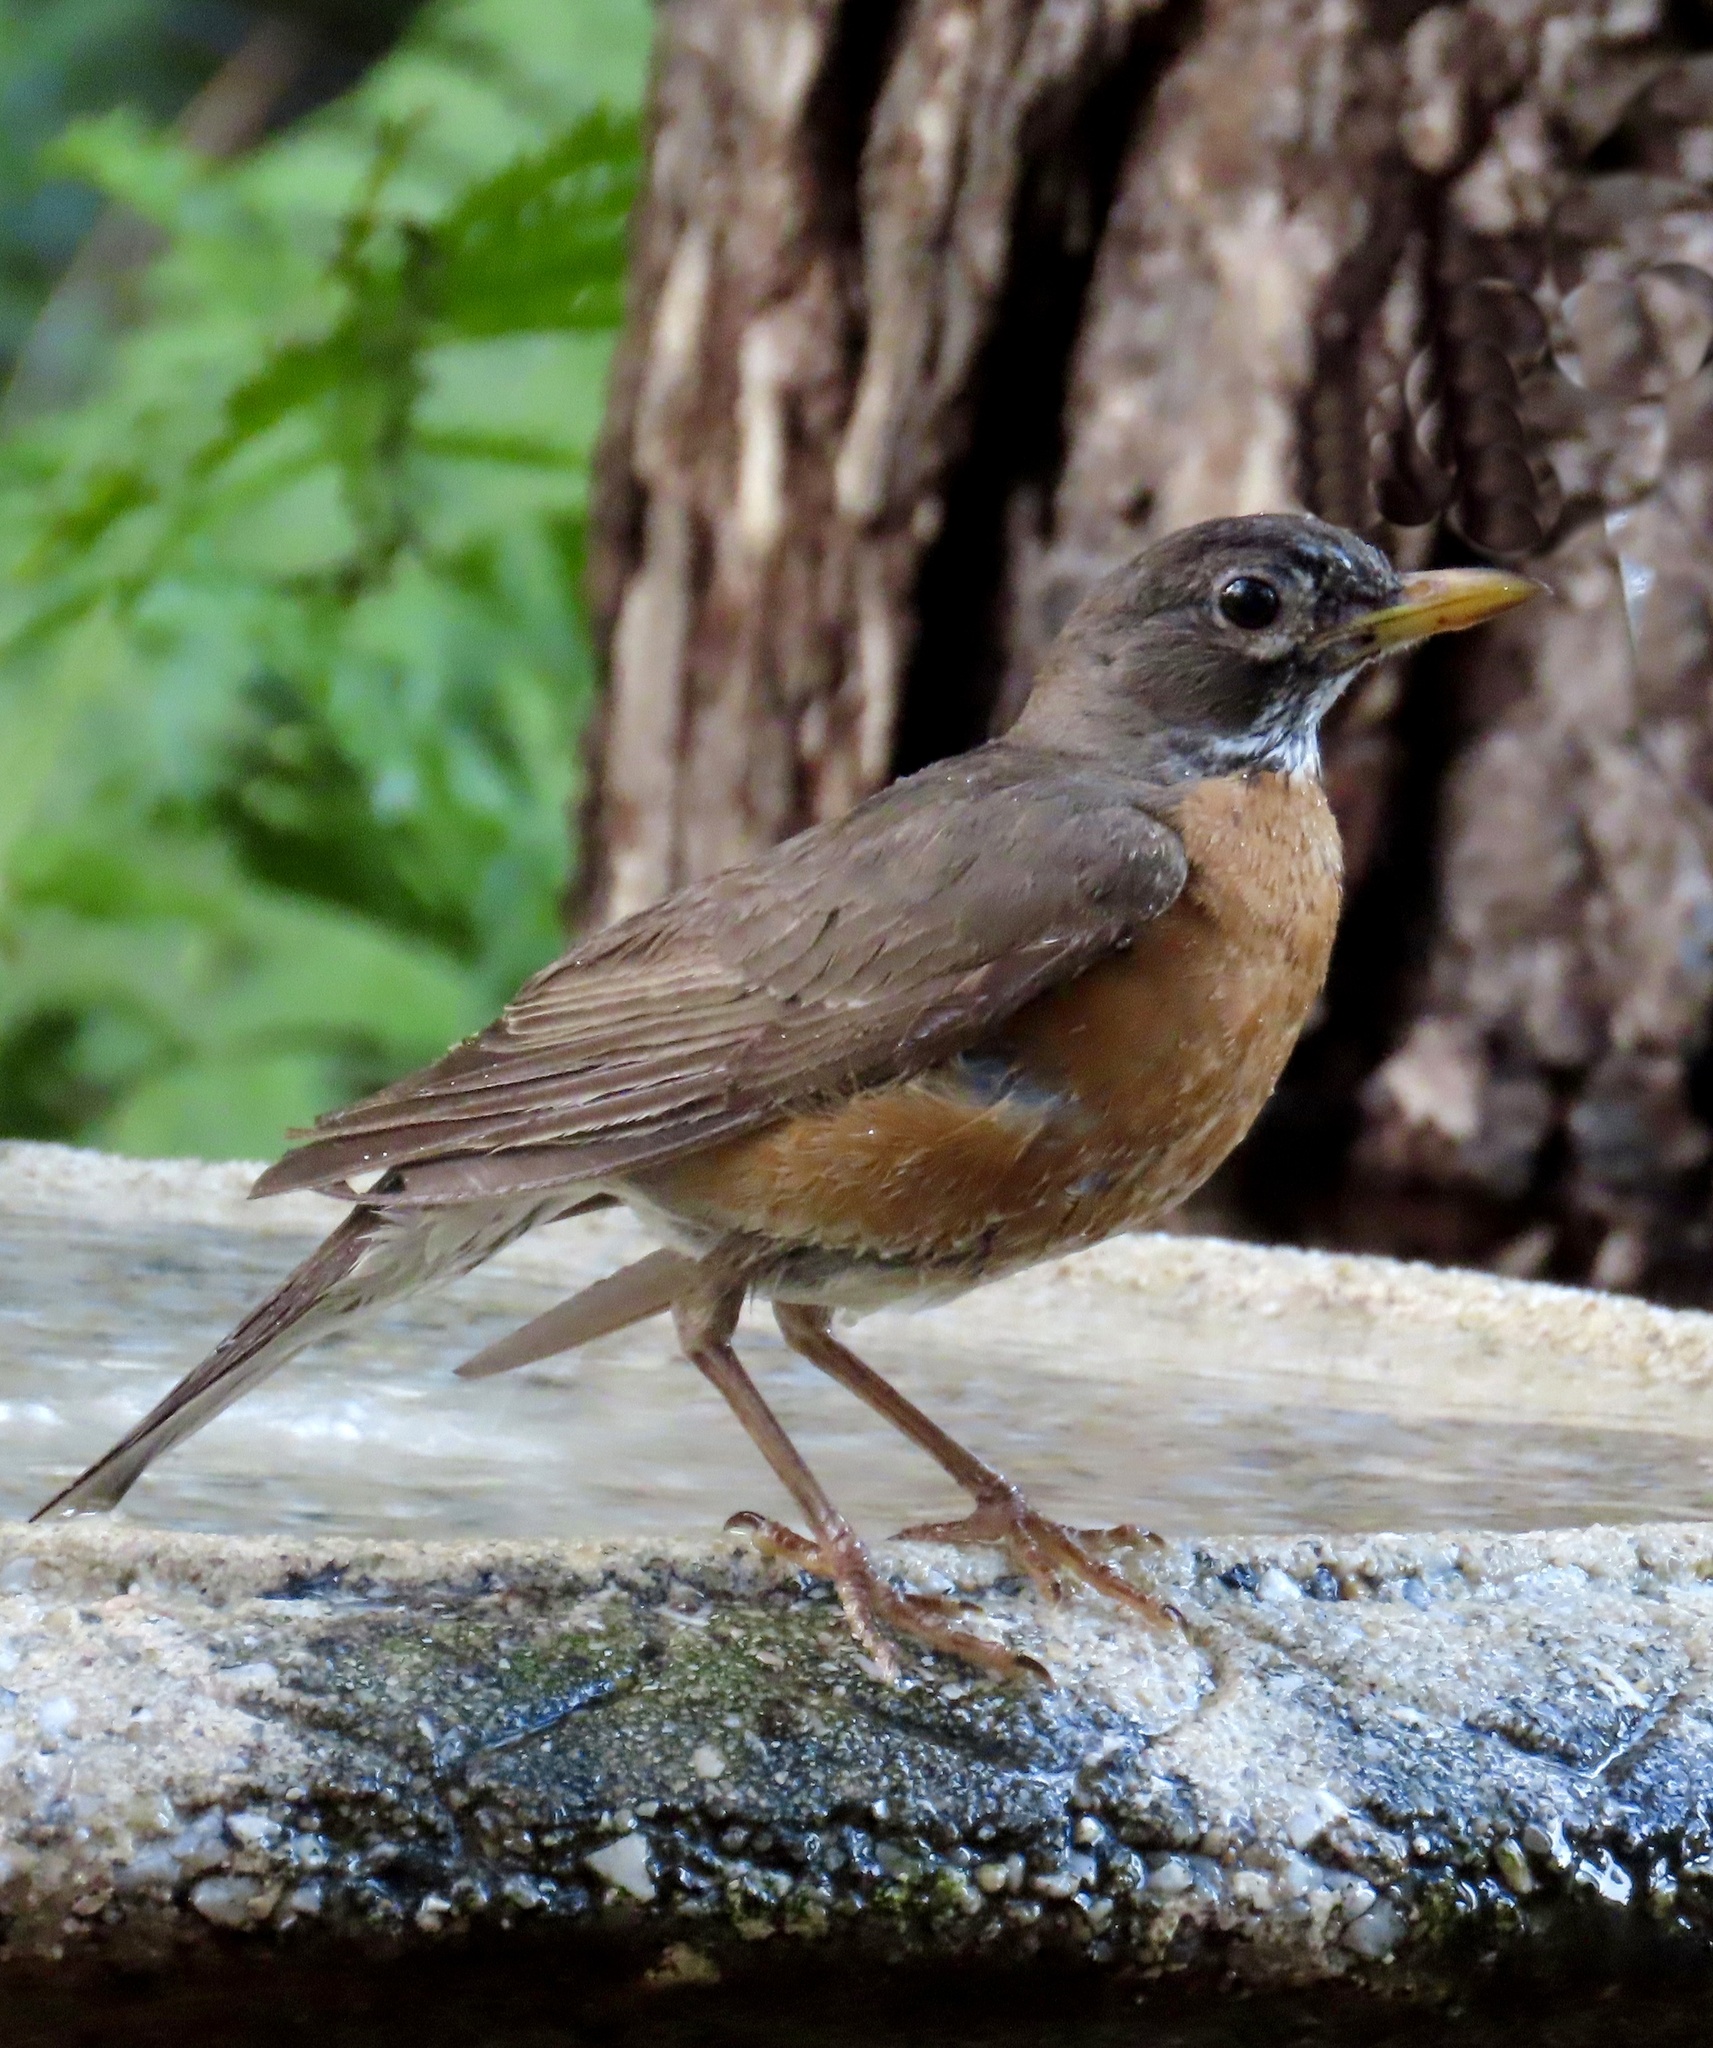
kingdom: Animalia
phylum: Chordata
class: Aves
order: Passeriformes
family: Turdidae
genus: Turdus
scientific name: Turdus migratorius
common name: American robin
